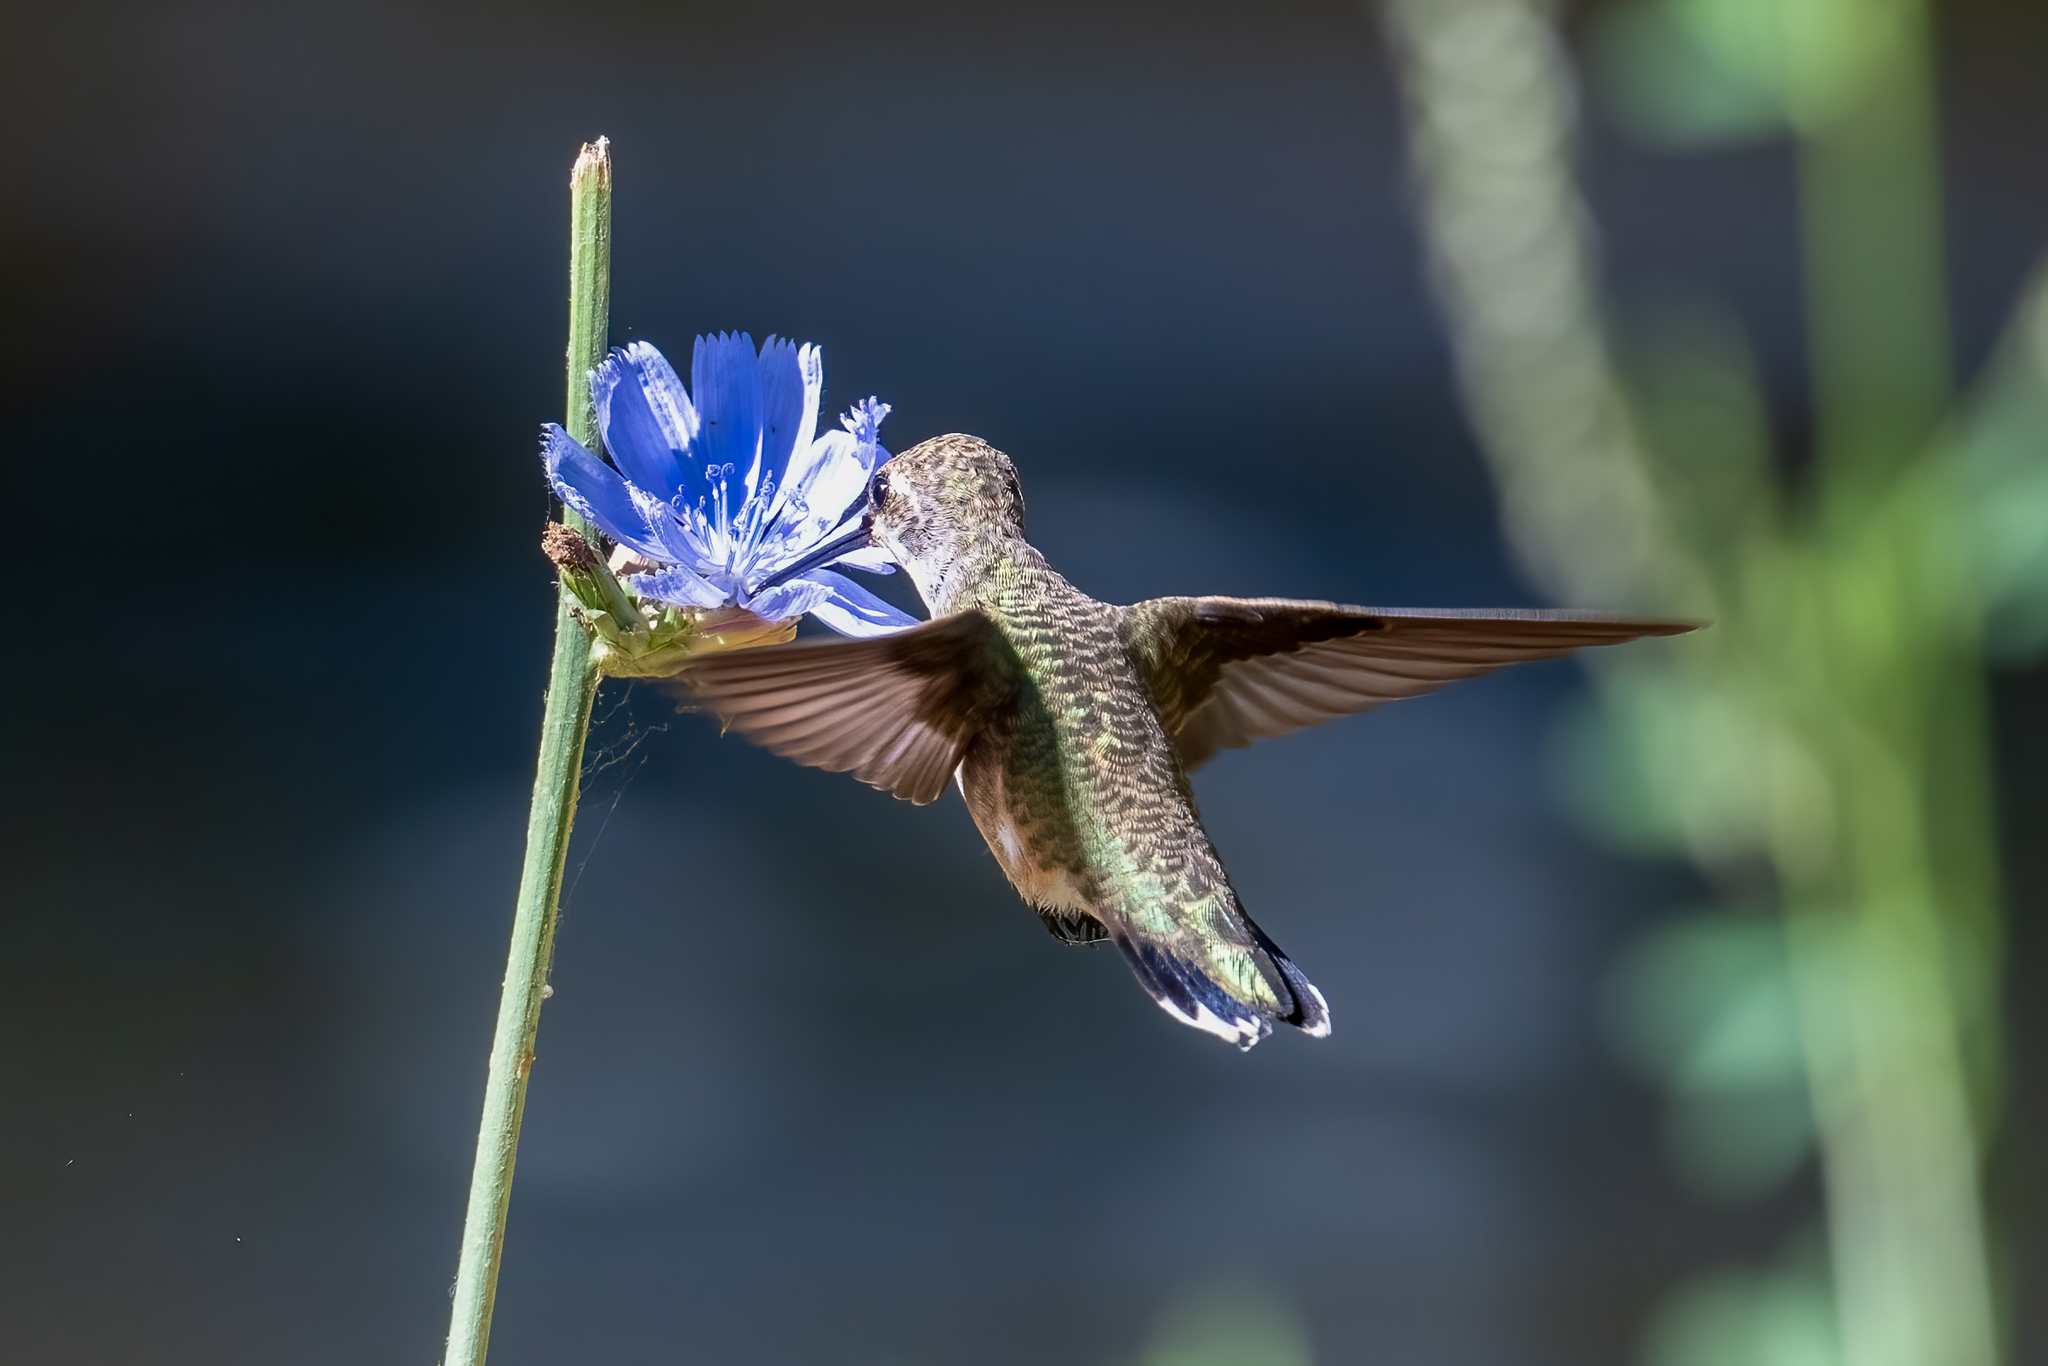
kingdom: Animalia
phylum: Chordata
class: Aves
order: Apodiformes
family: Trochilidae
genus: Archilochus
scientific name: Archilochus alexandri
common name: Black-chinned hummingbird
